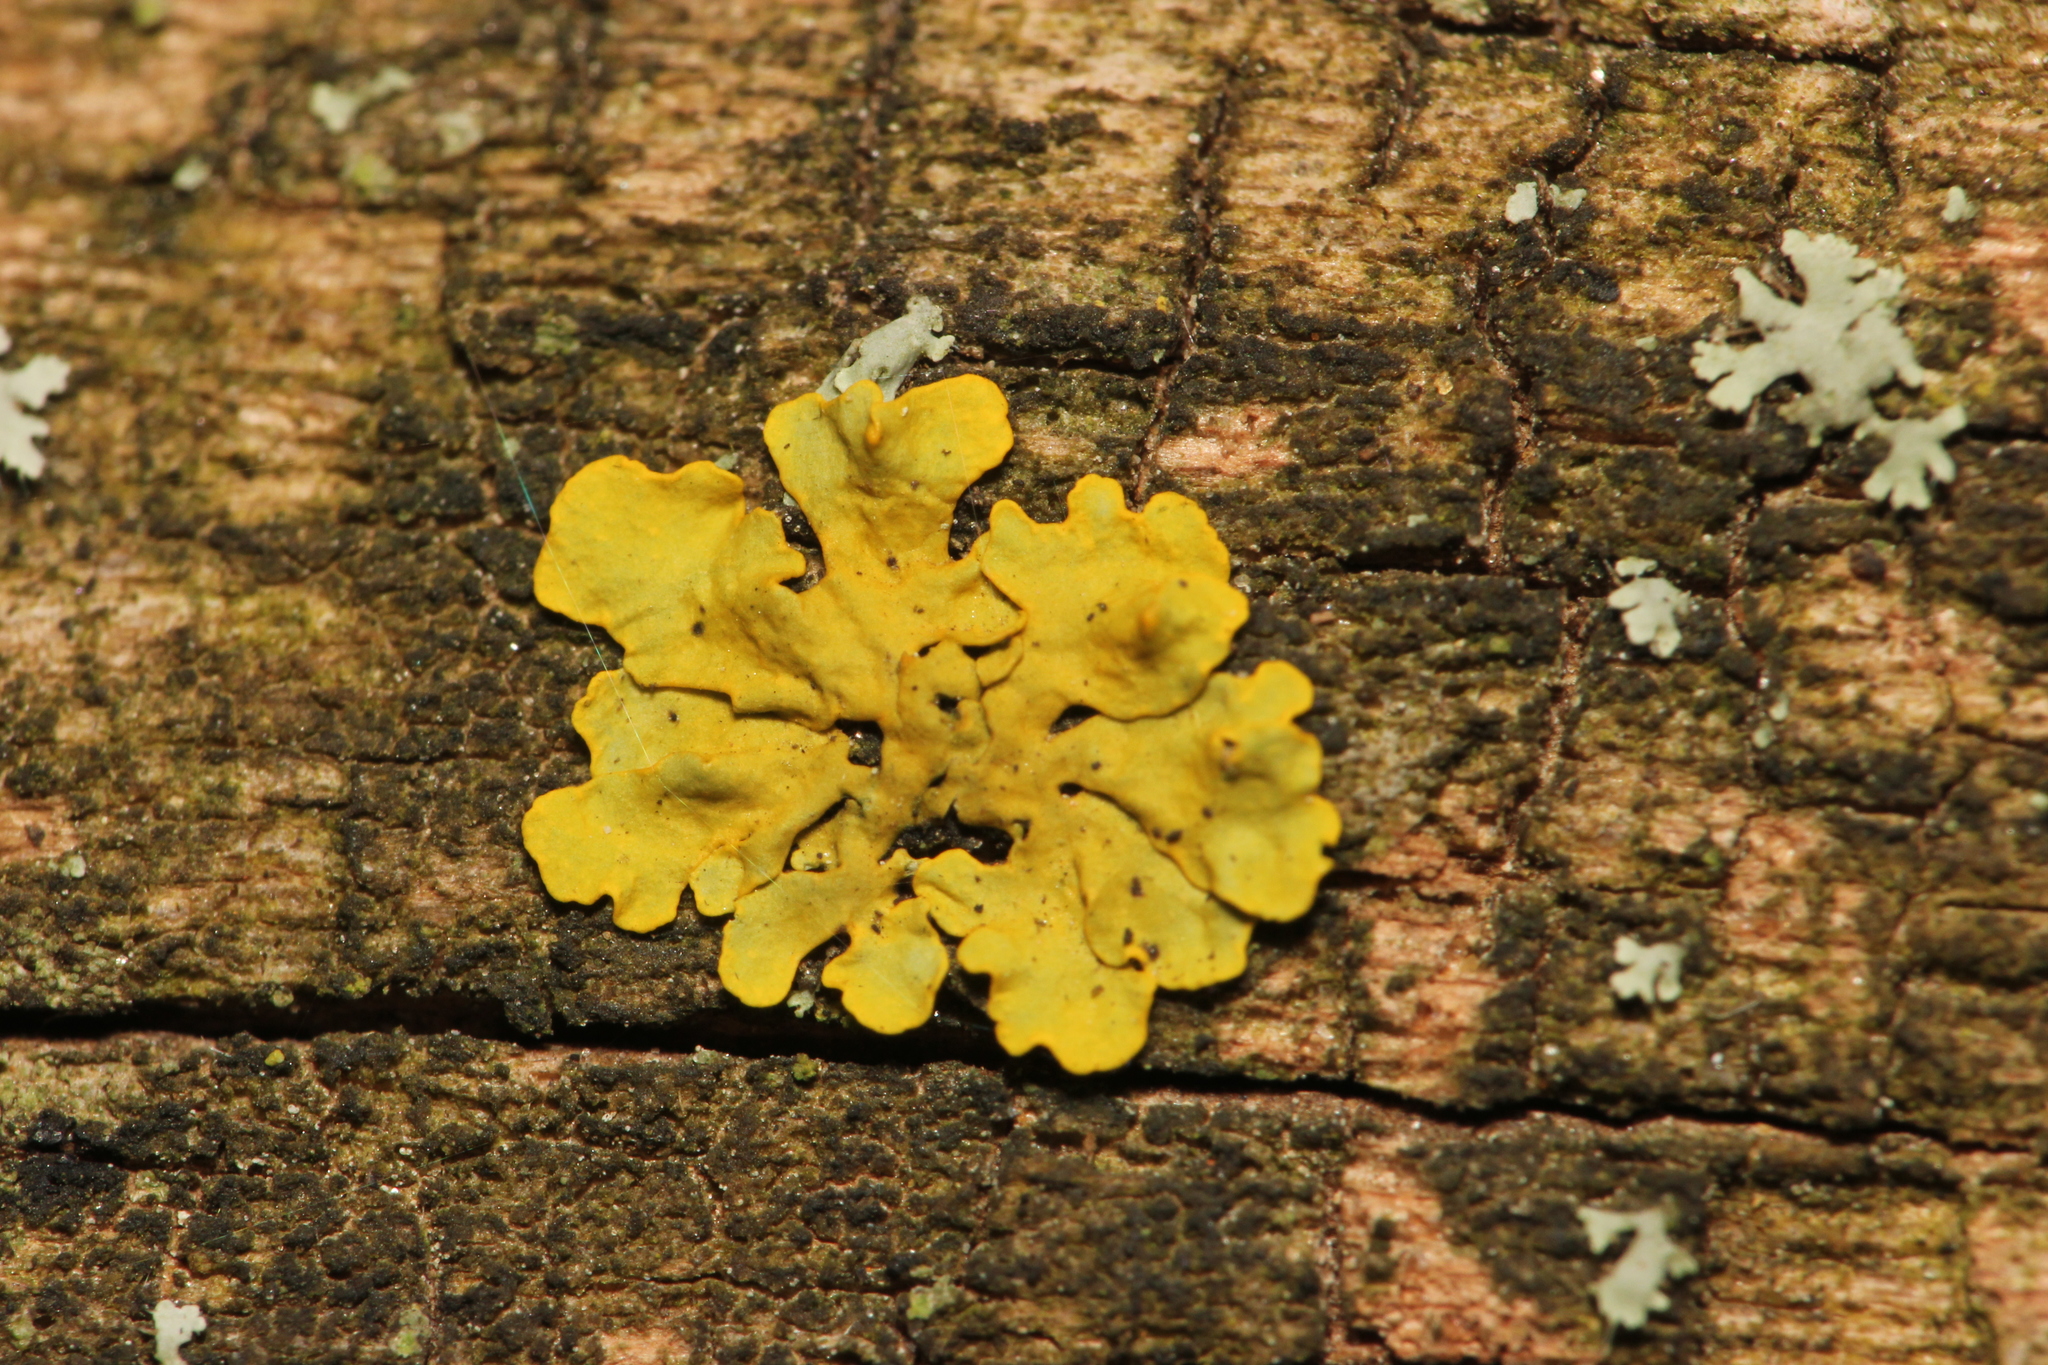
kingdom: Fungi
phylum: Ascomycota
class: Lecanoromycetes
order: Teloschistales
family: Teloschistaceae
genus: Xanthoria
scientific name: Xanthoria parietina
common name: Common orange lichen
